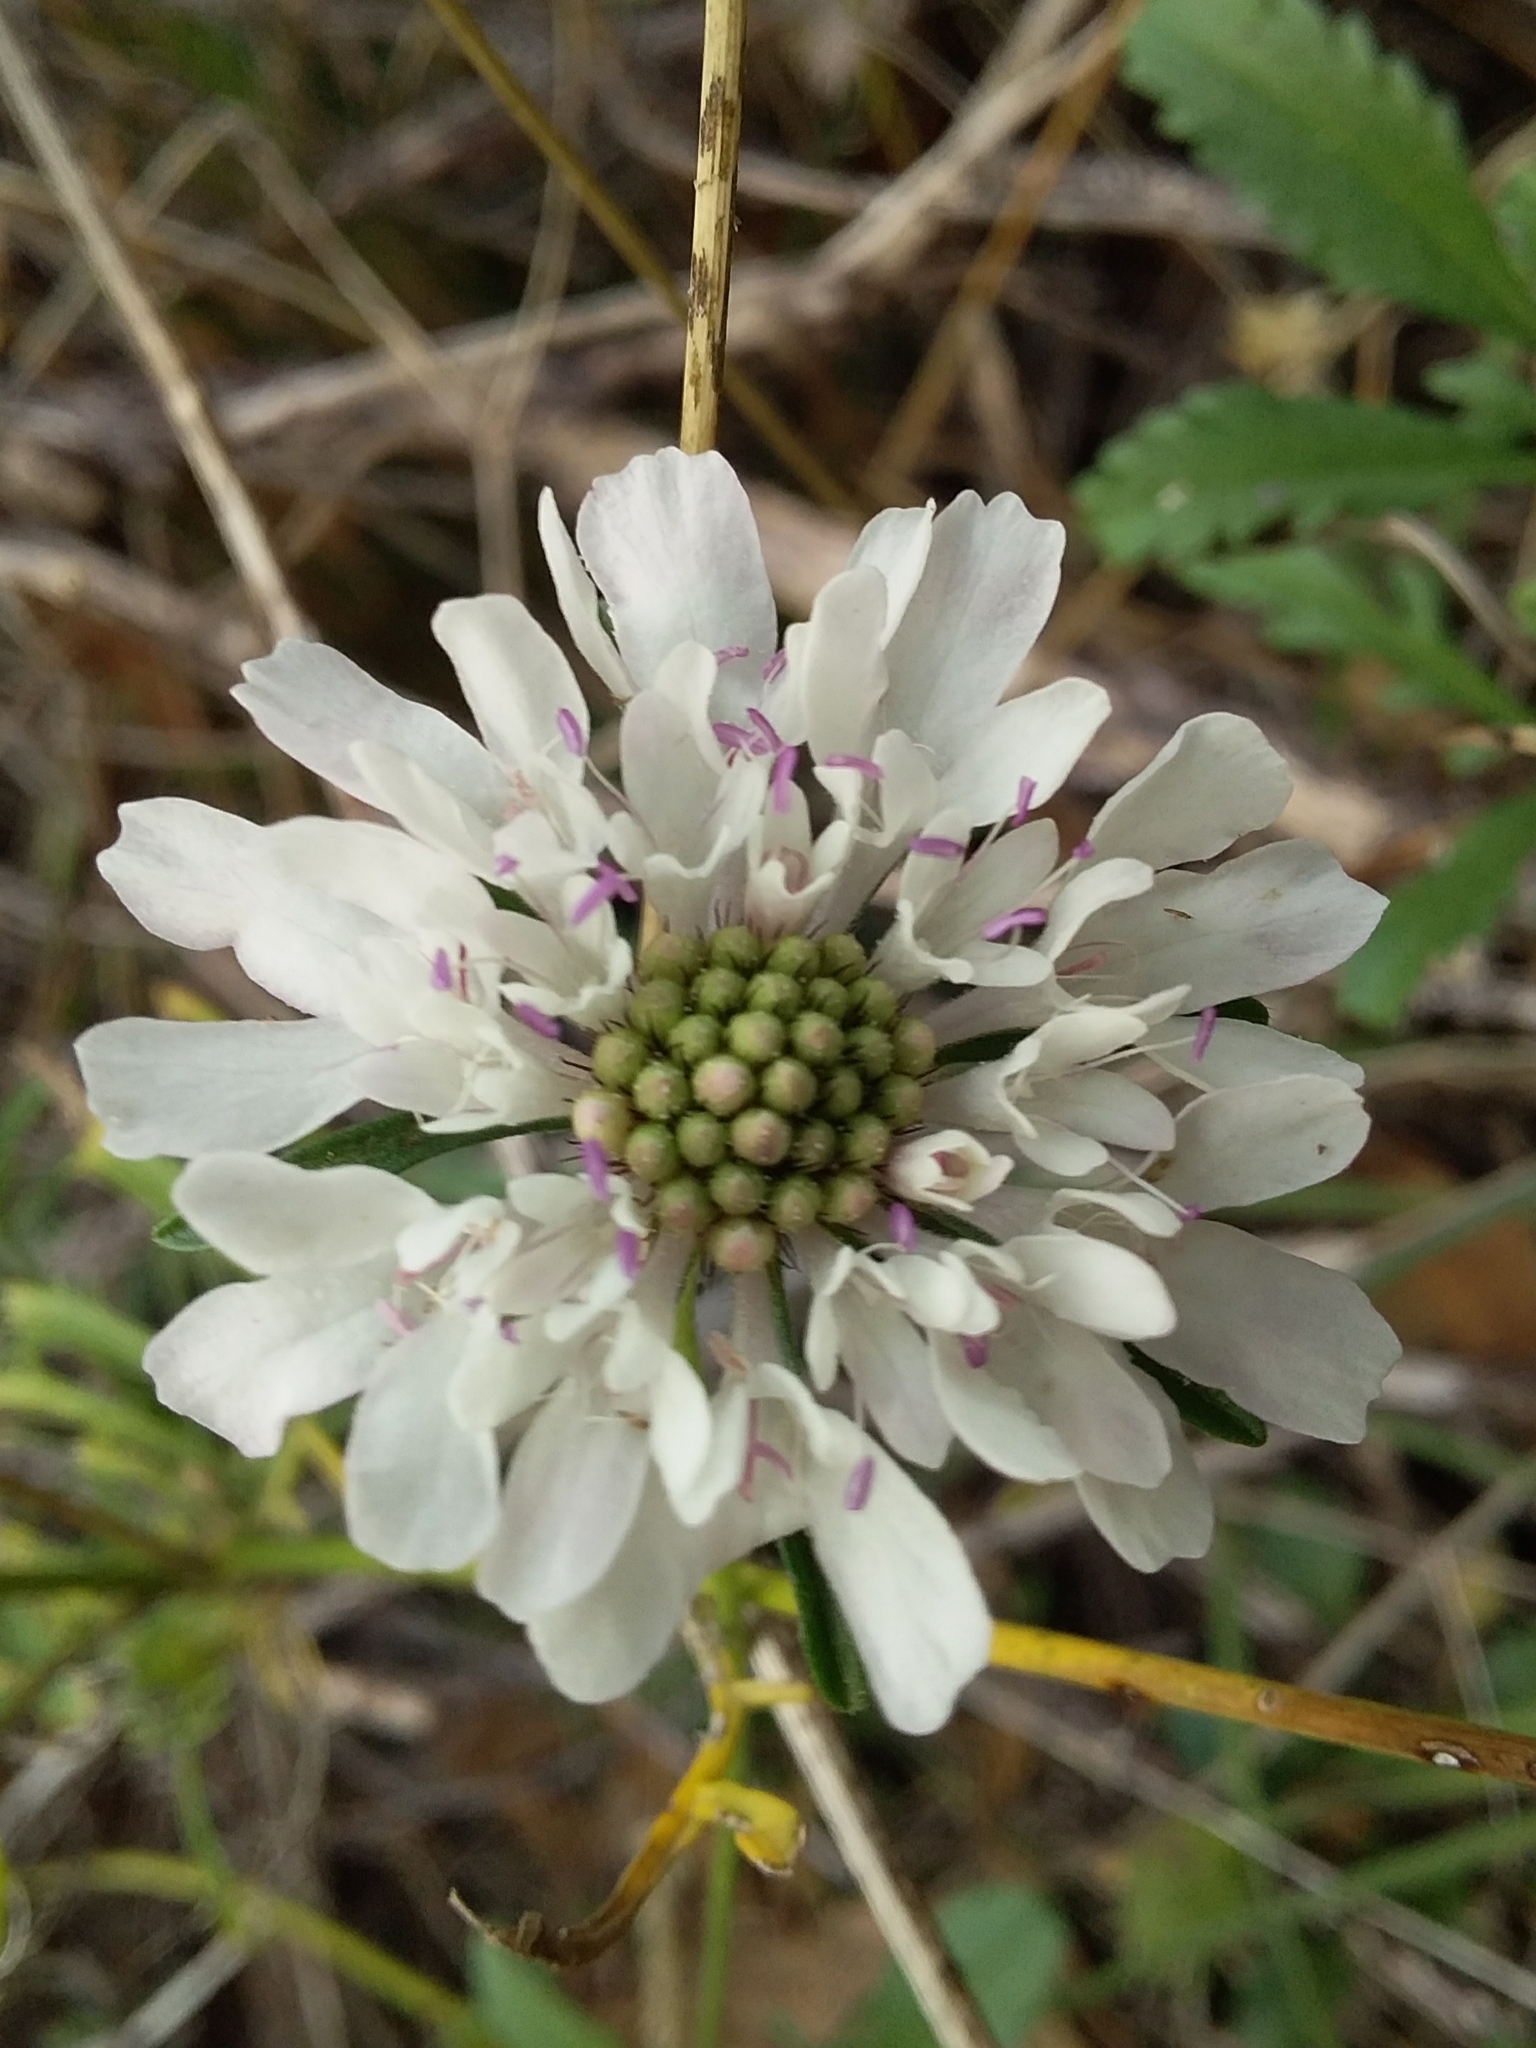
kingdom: Plantae
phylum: Tracheophyta
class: Magnoliopsida
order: Dipsacales
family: Caprifoliaceae
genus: Sixalix
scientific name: Sixalix atropurpurea
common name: Sweet scabious
